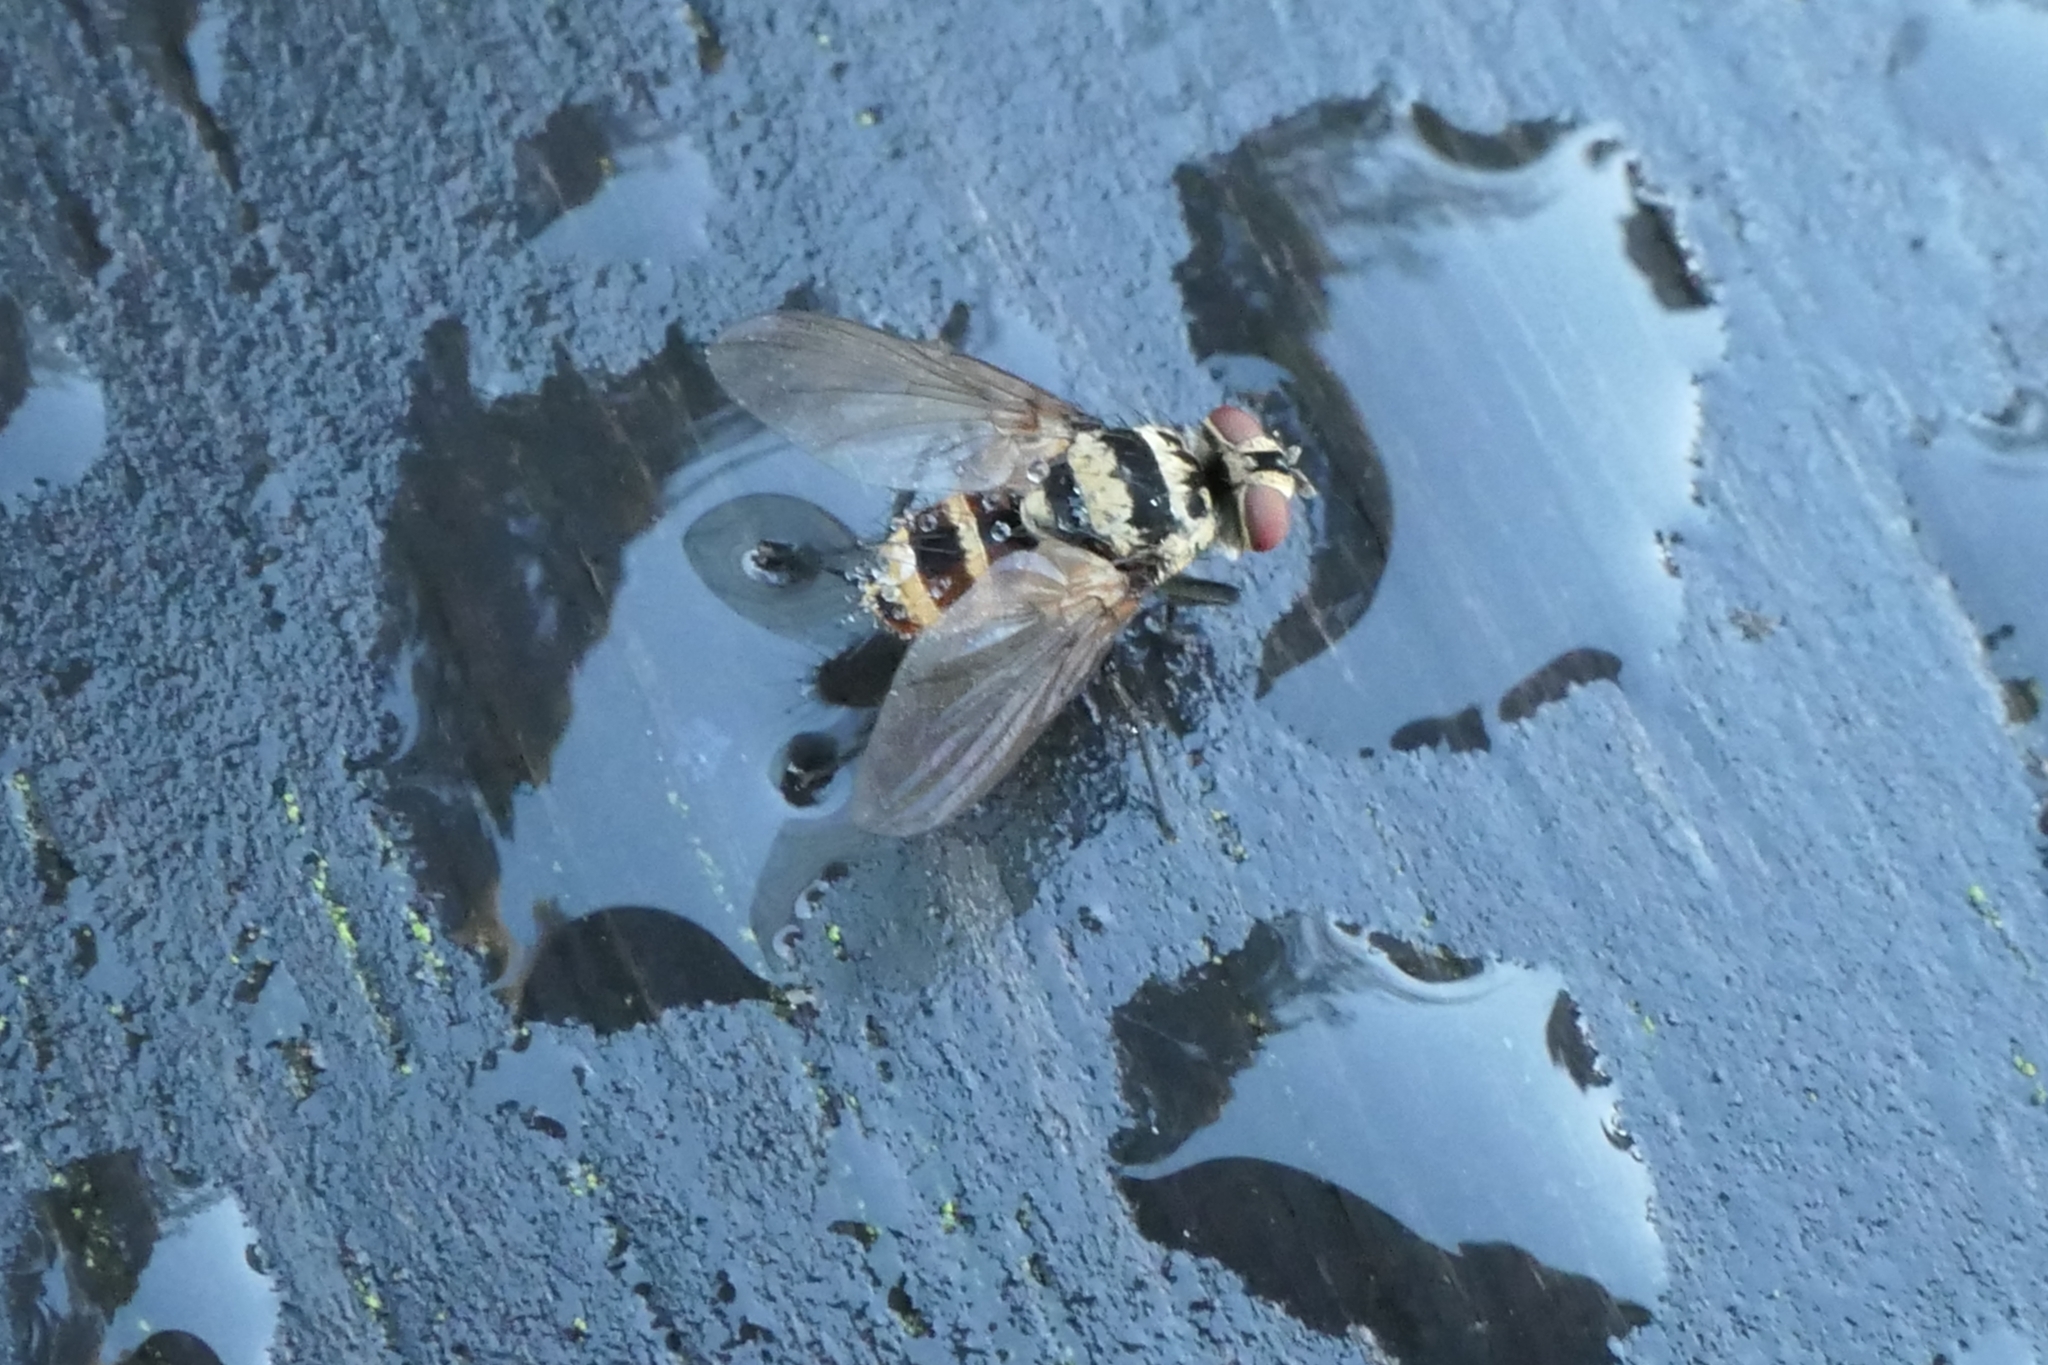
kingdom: Animalia
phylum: Arthropoda
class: Insecta
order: Diptera
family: Tachinidae
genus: Trigonospila
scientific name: Trigonospila brevifacies
